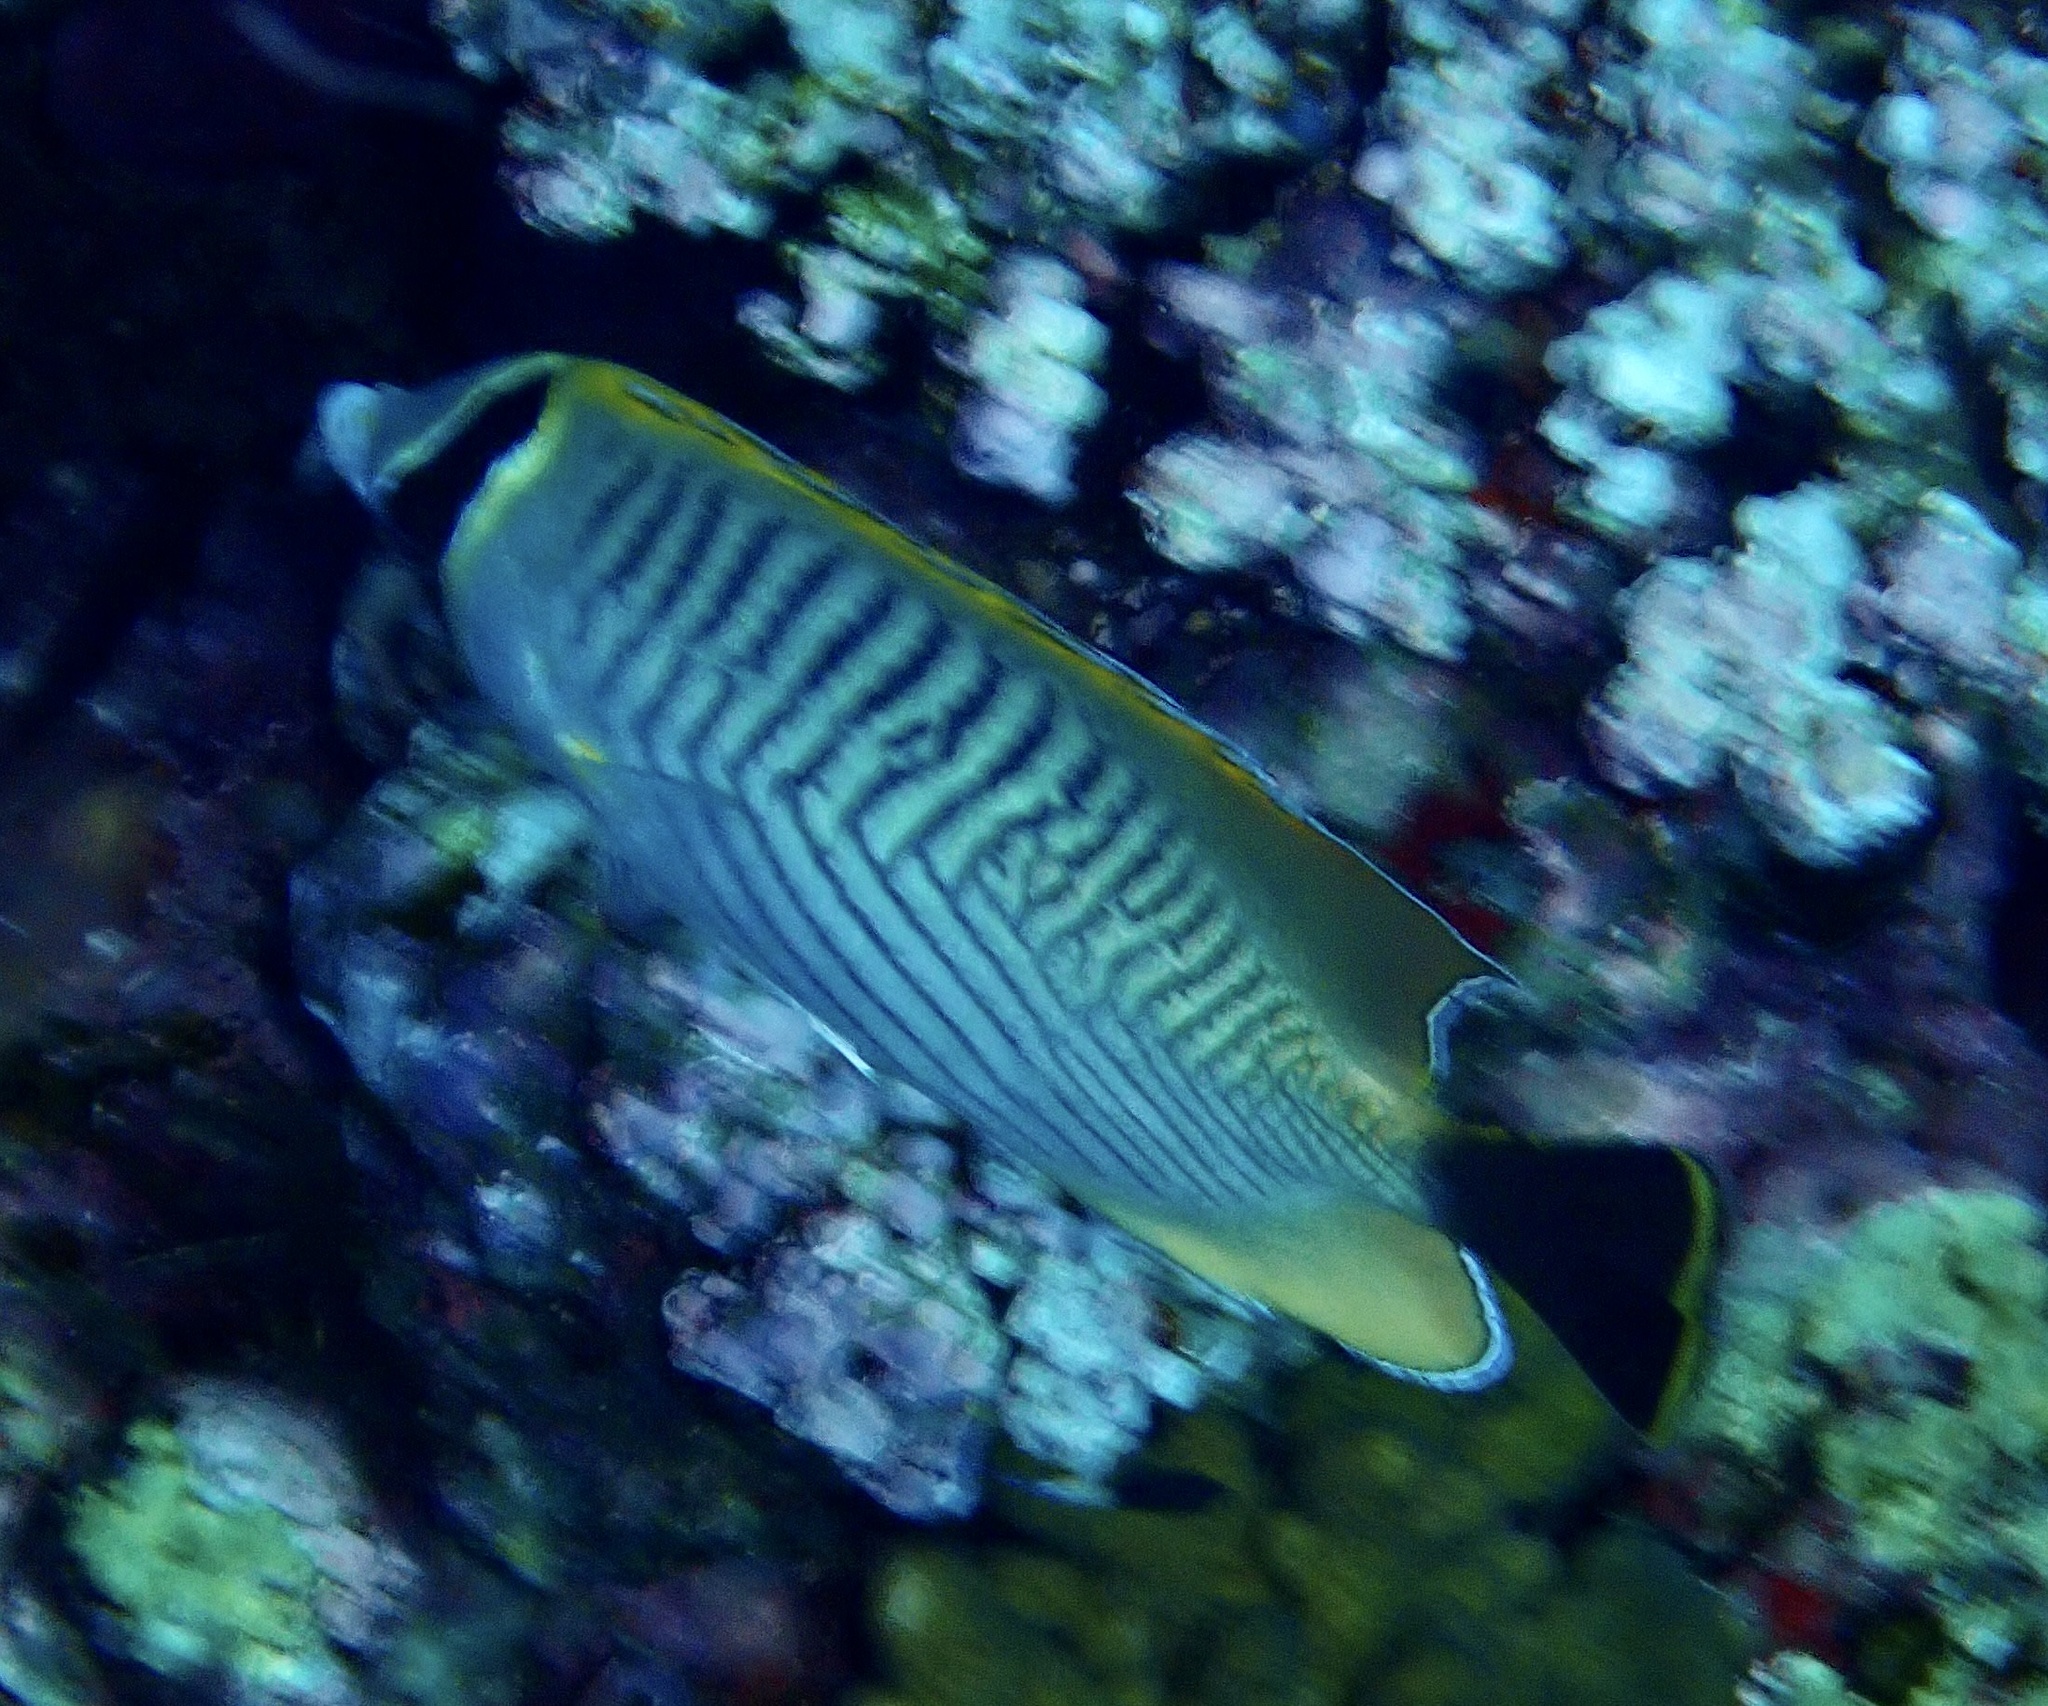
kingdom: Animalia
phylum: Chordata
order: Perciformes
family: Chaetodontidae
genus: Chaetodon
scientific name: Chaetodon trifascialis
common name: Chevroned butterflyfish
